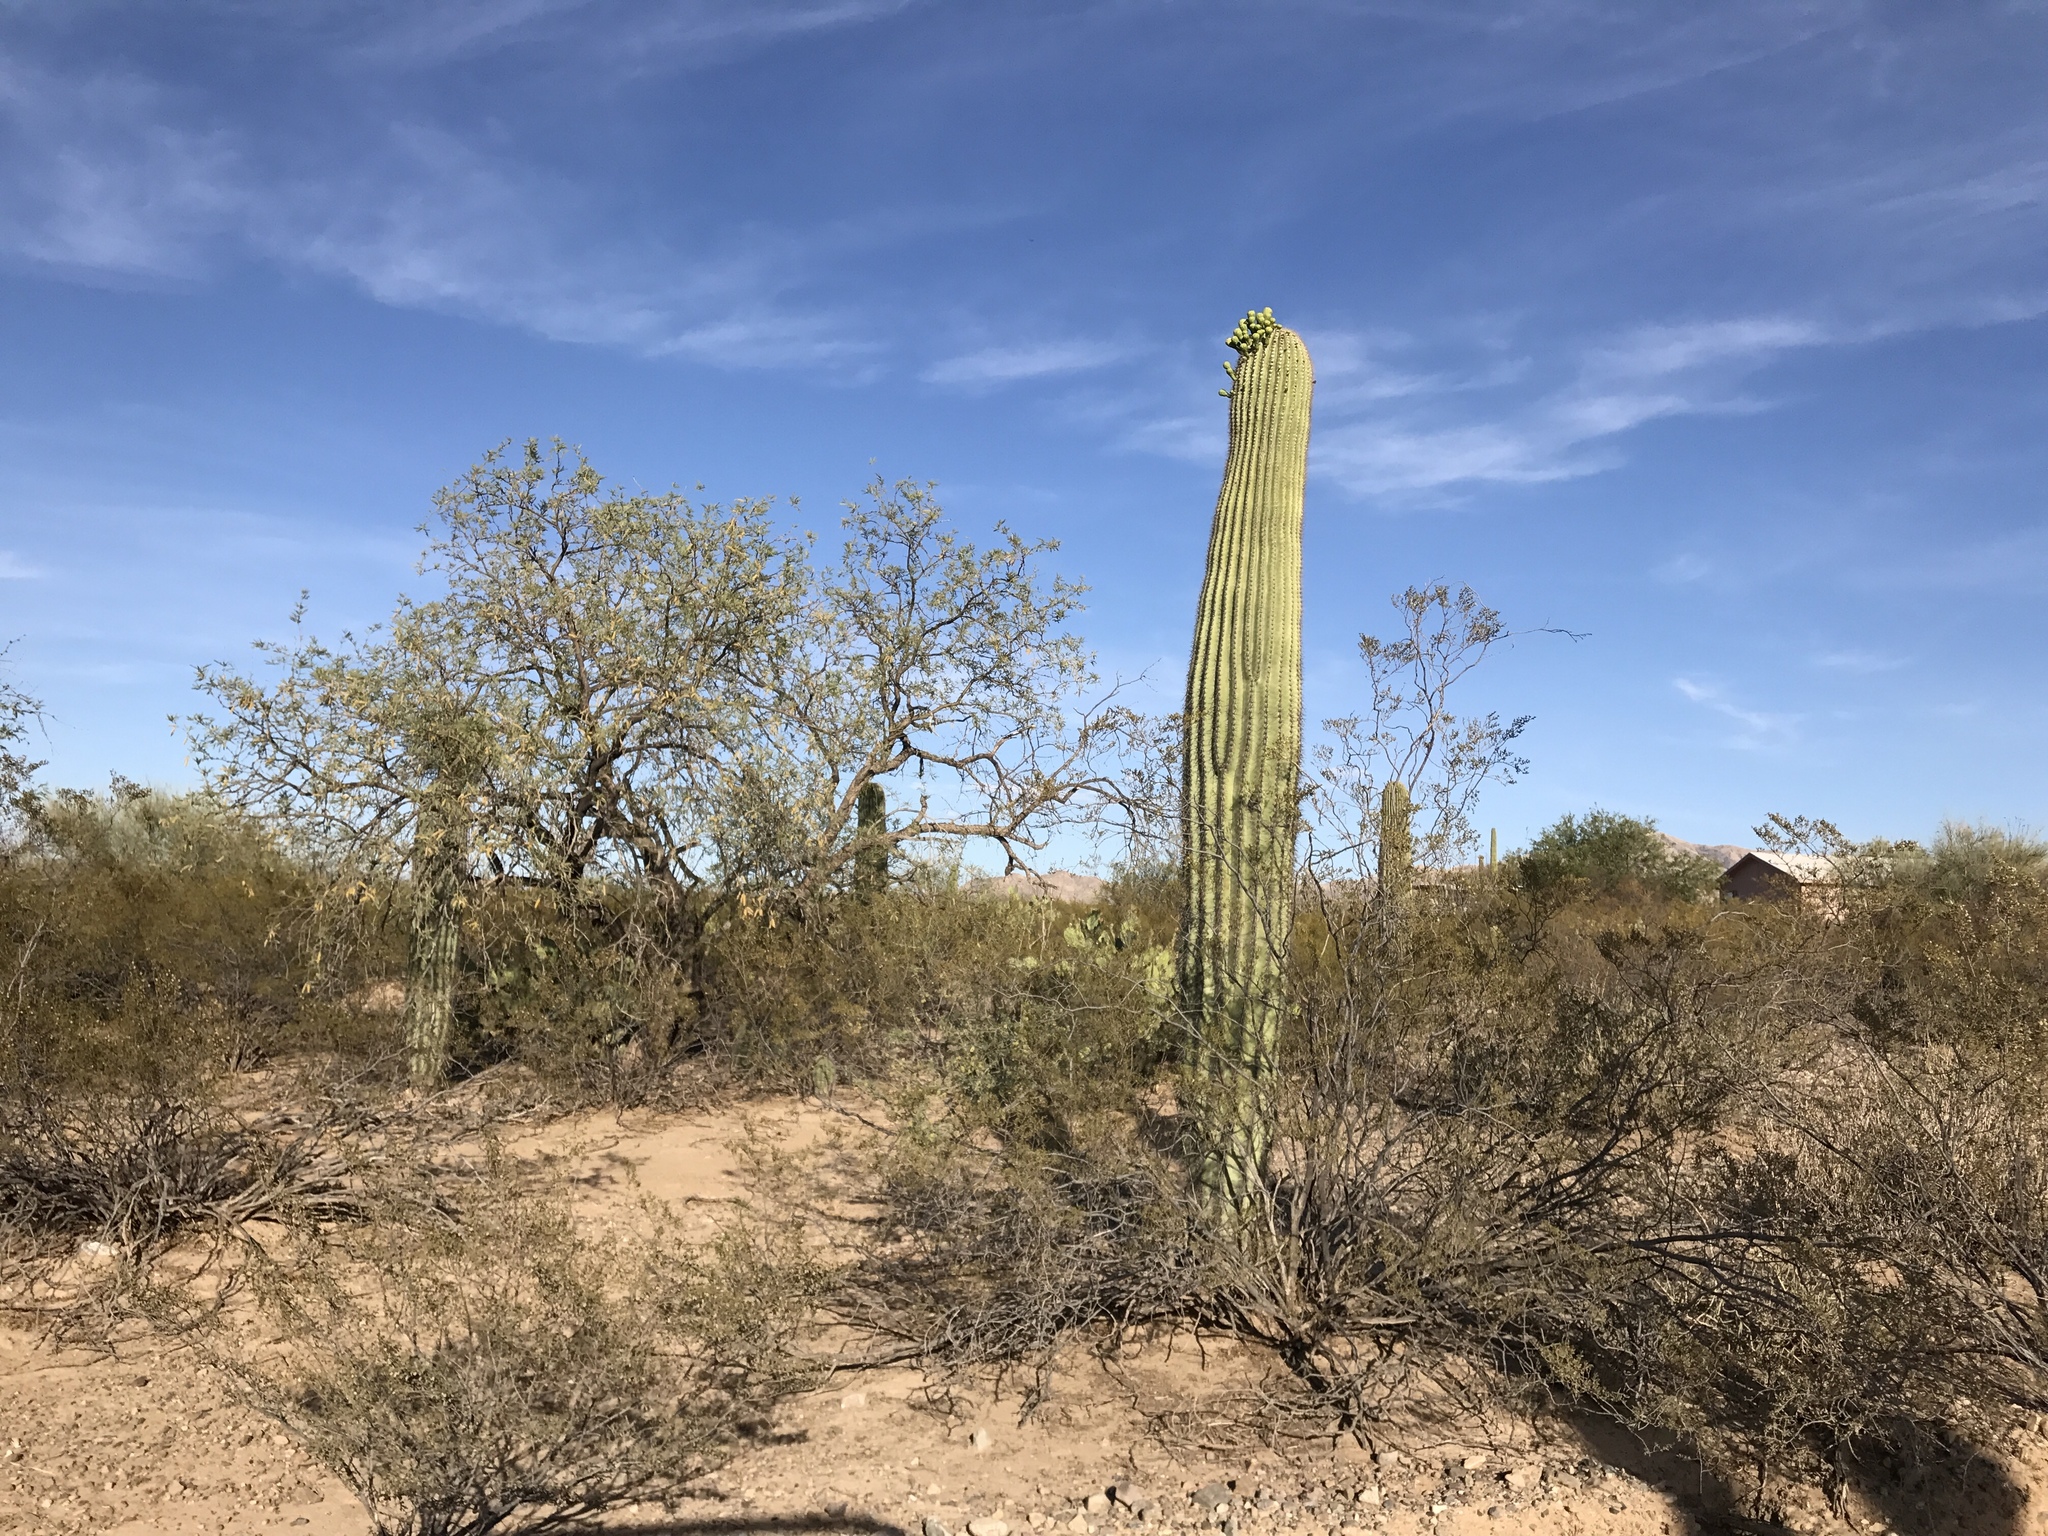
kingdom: Plantae
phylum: Tracheophyta
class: Magnoliopsida
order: Caryophyllales
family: Cactaceae
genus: Carnegiea
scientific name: Carnegiea gigantea
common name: Saguaro
